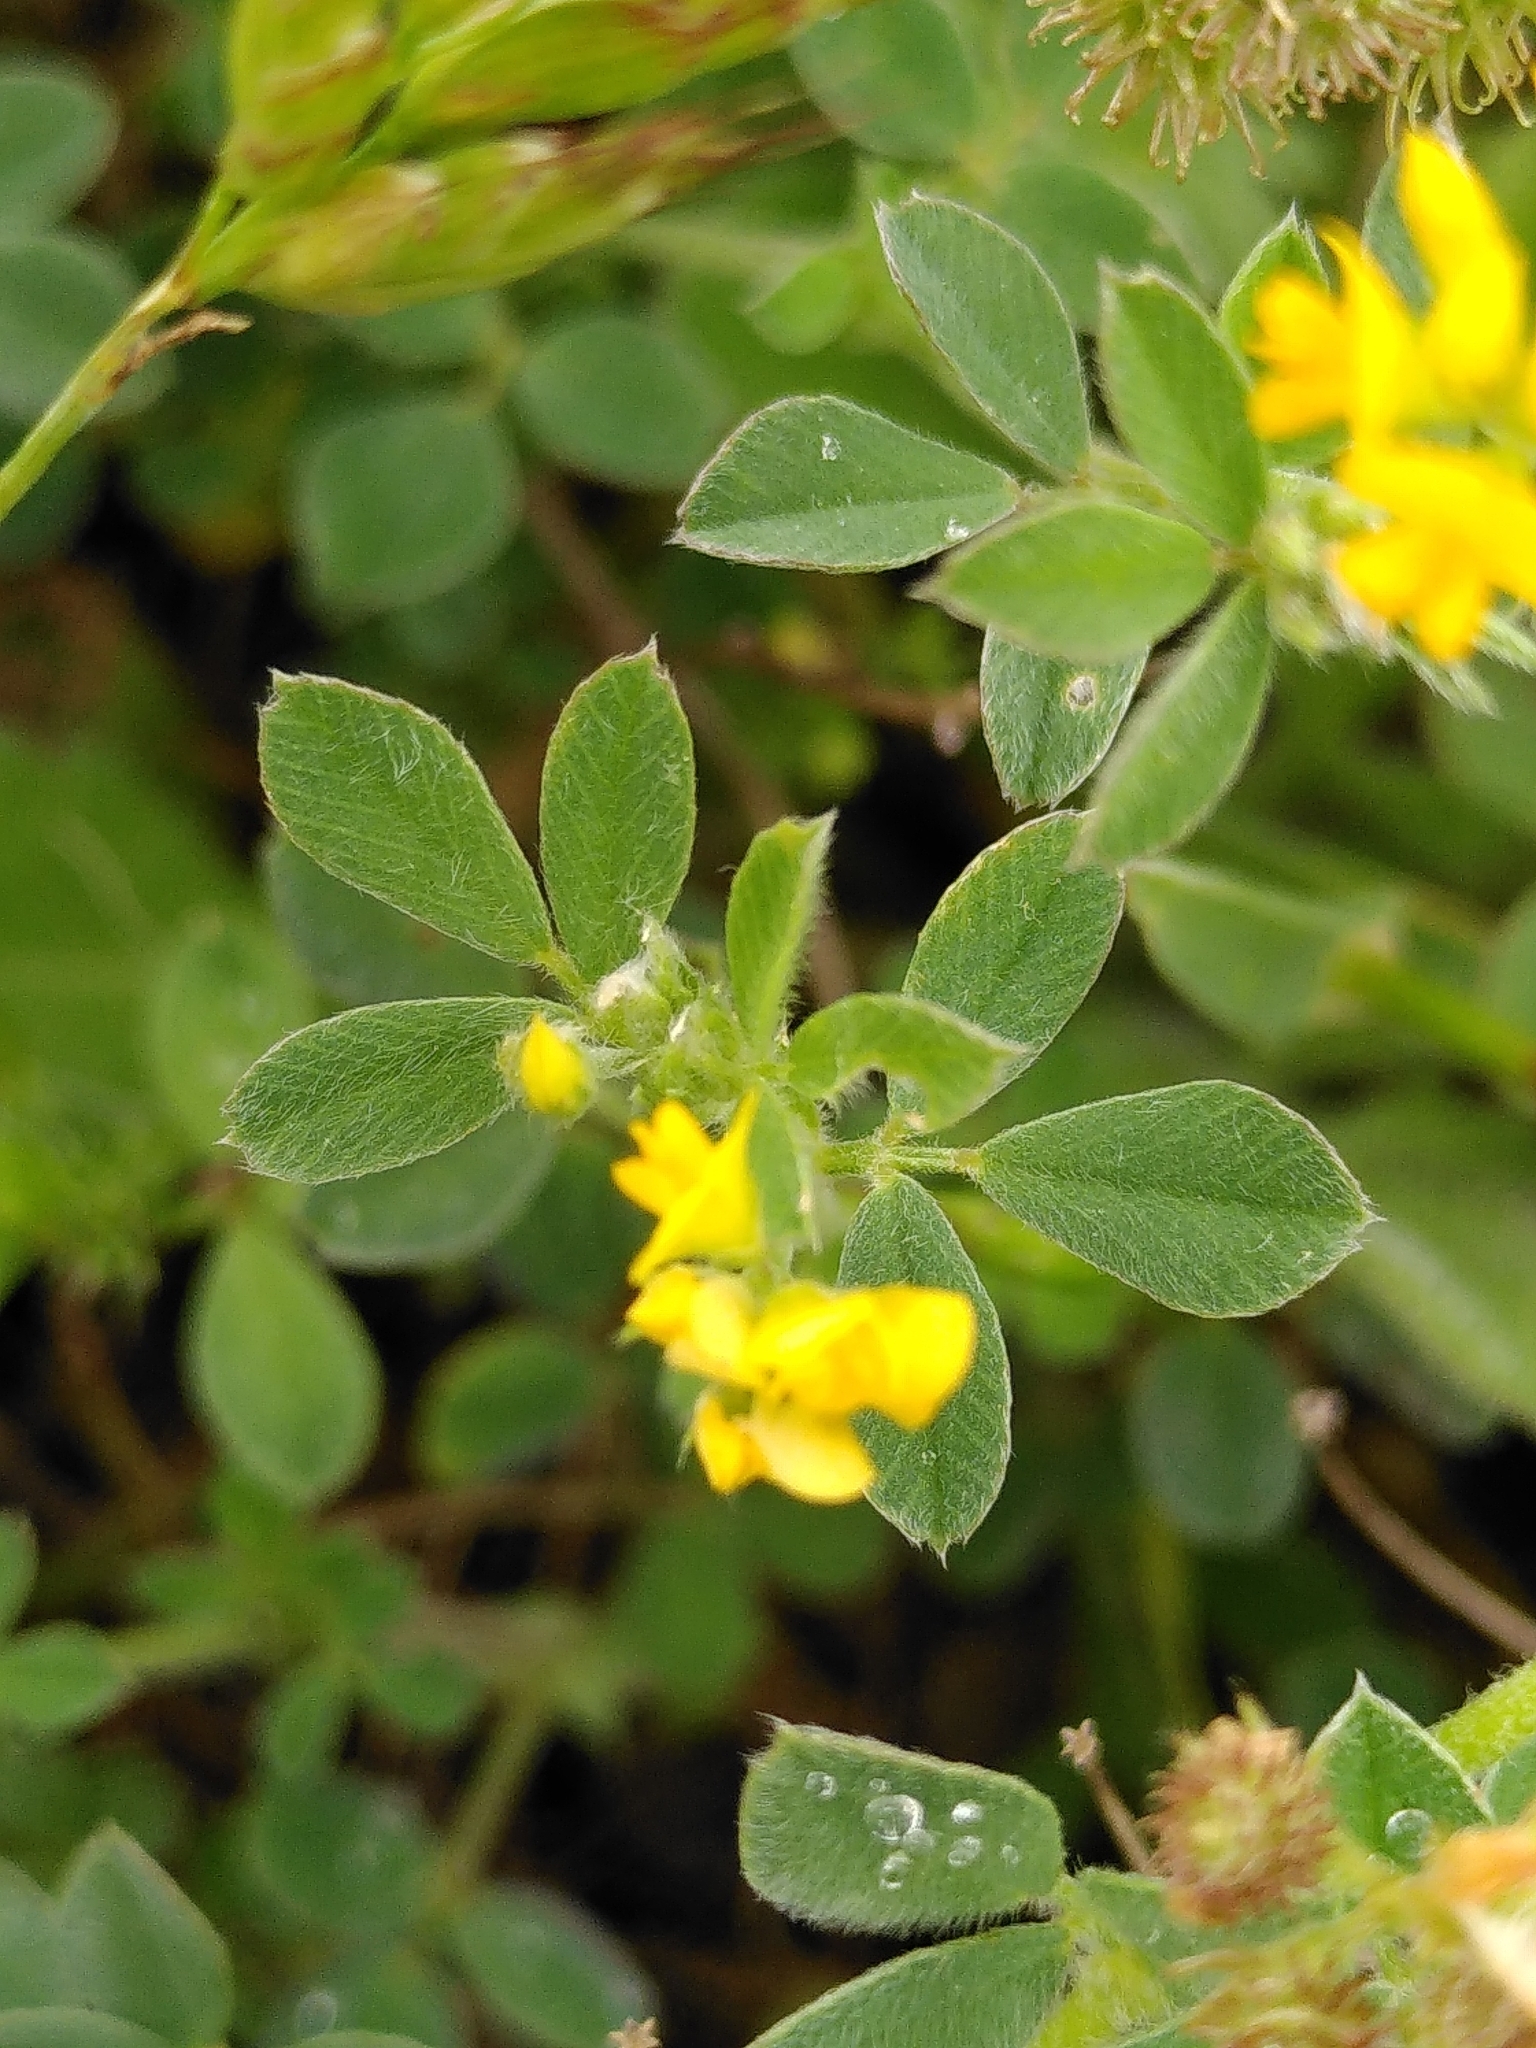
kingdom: Plantae
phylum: Tracheophyta
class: Magnoliopsida
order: Fabales
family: Fabaceae
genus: Medicago
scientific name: Medicago minima
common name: Little bur-clover
